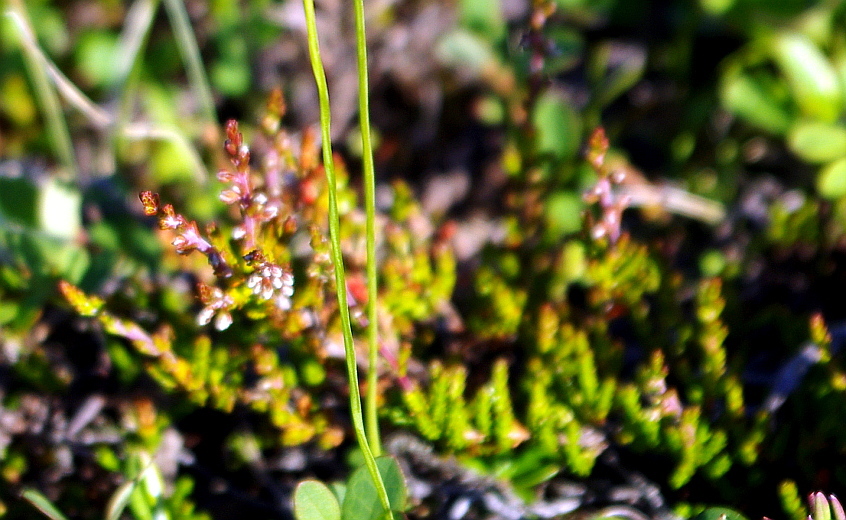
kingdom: Plantae
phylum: Tracheophyta
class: Magnoliopsida
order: Ericales
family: Ericaceae
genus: Calluna
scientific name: Calluna vulgaris
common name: Heather
